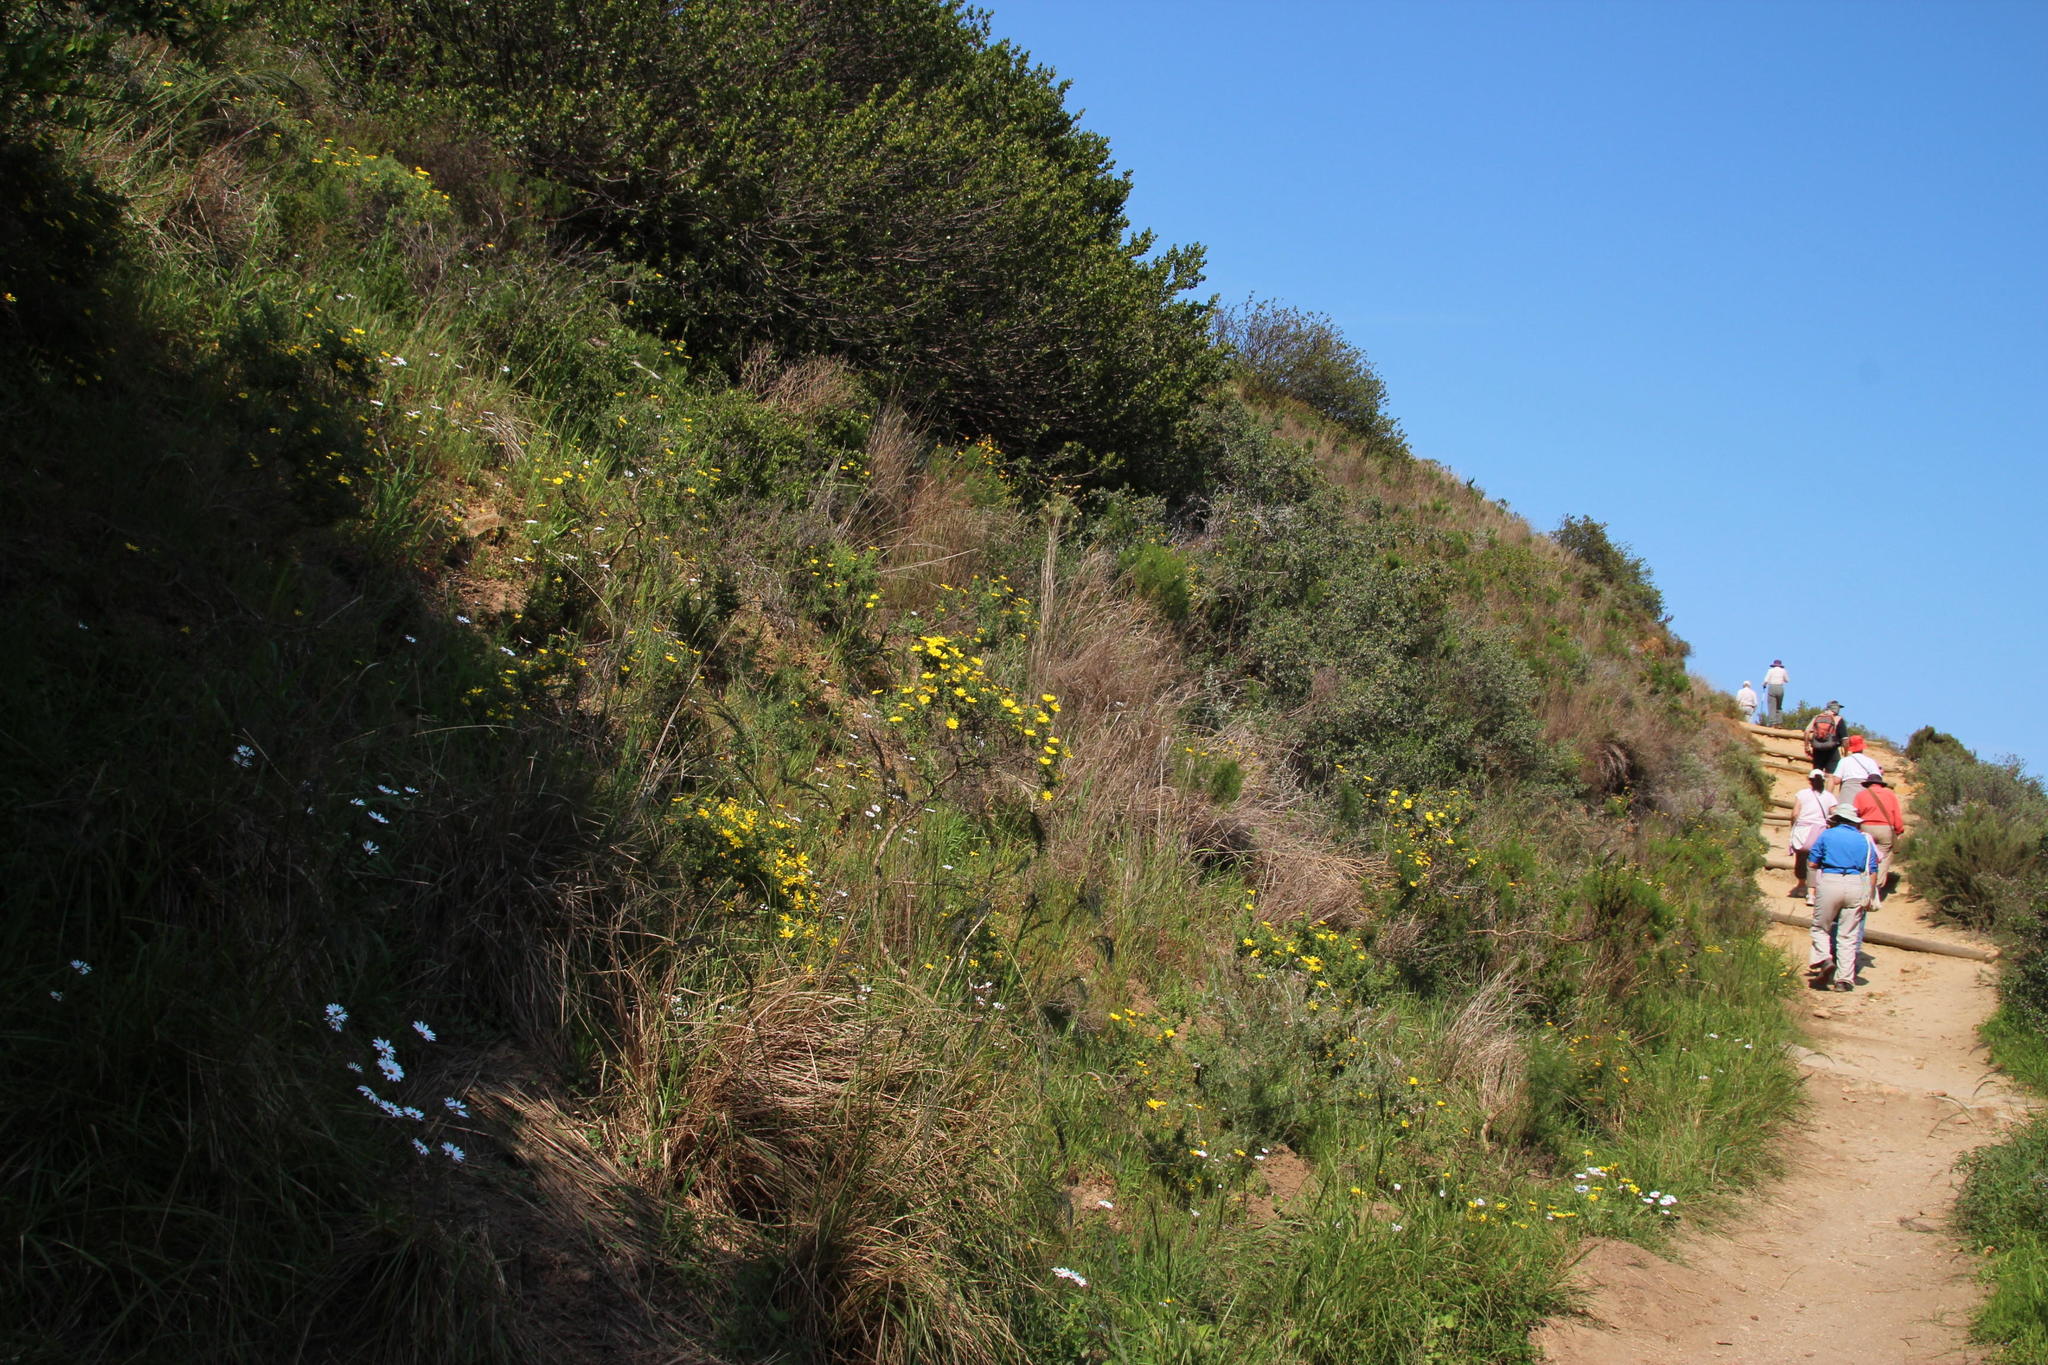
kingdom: Plantae
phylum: Tracheophyta
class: Magnoliopsida
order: Asterales
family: Asteraceae
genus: Osteospermum
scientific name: Osteospermum spinosum
